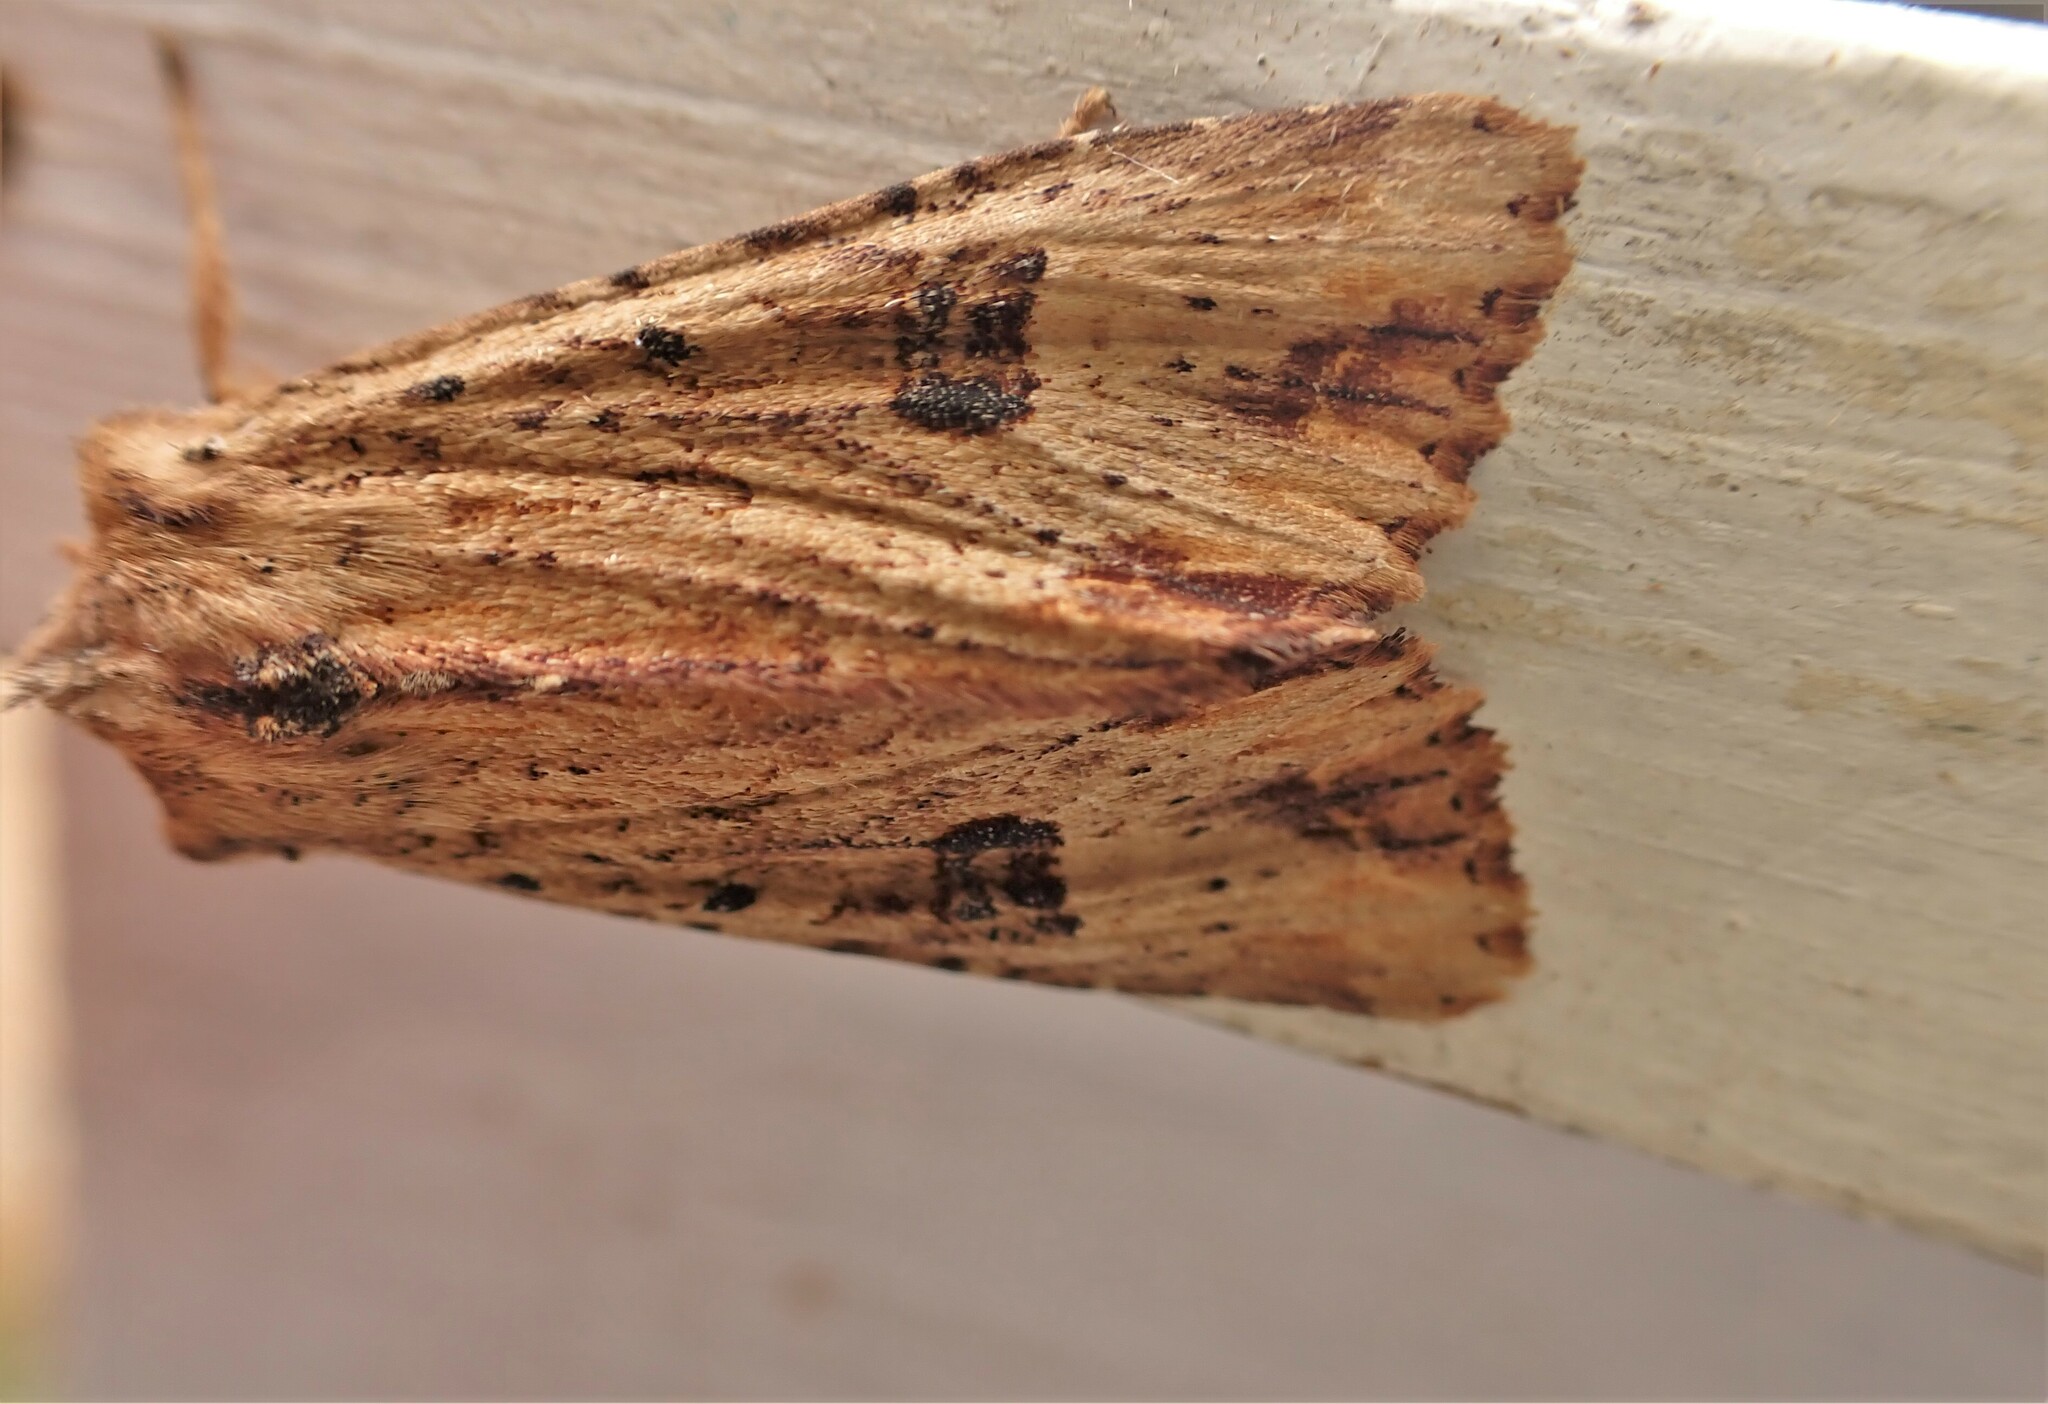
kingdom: Animalia
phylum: Arthropoda
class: Insecta
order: Lepidoptera
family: Noctuidae
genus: Ichneutica
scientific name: Ichneutica
